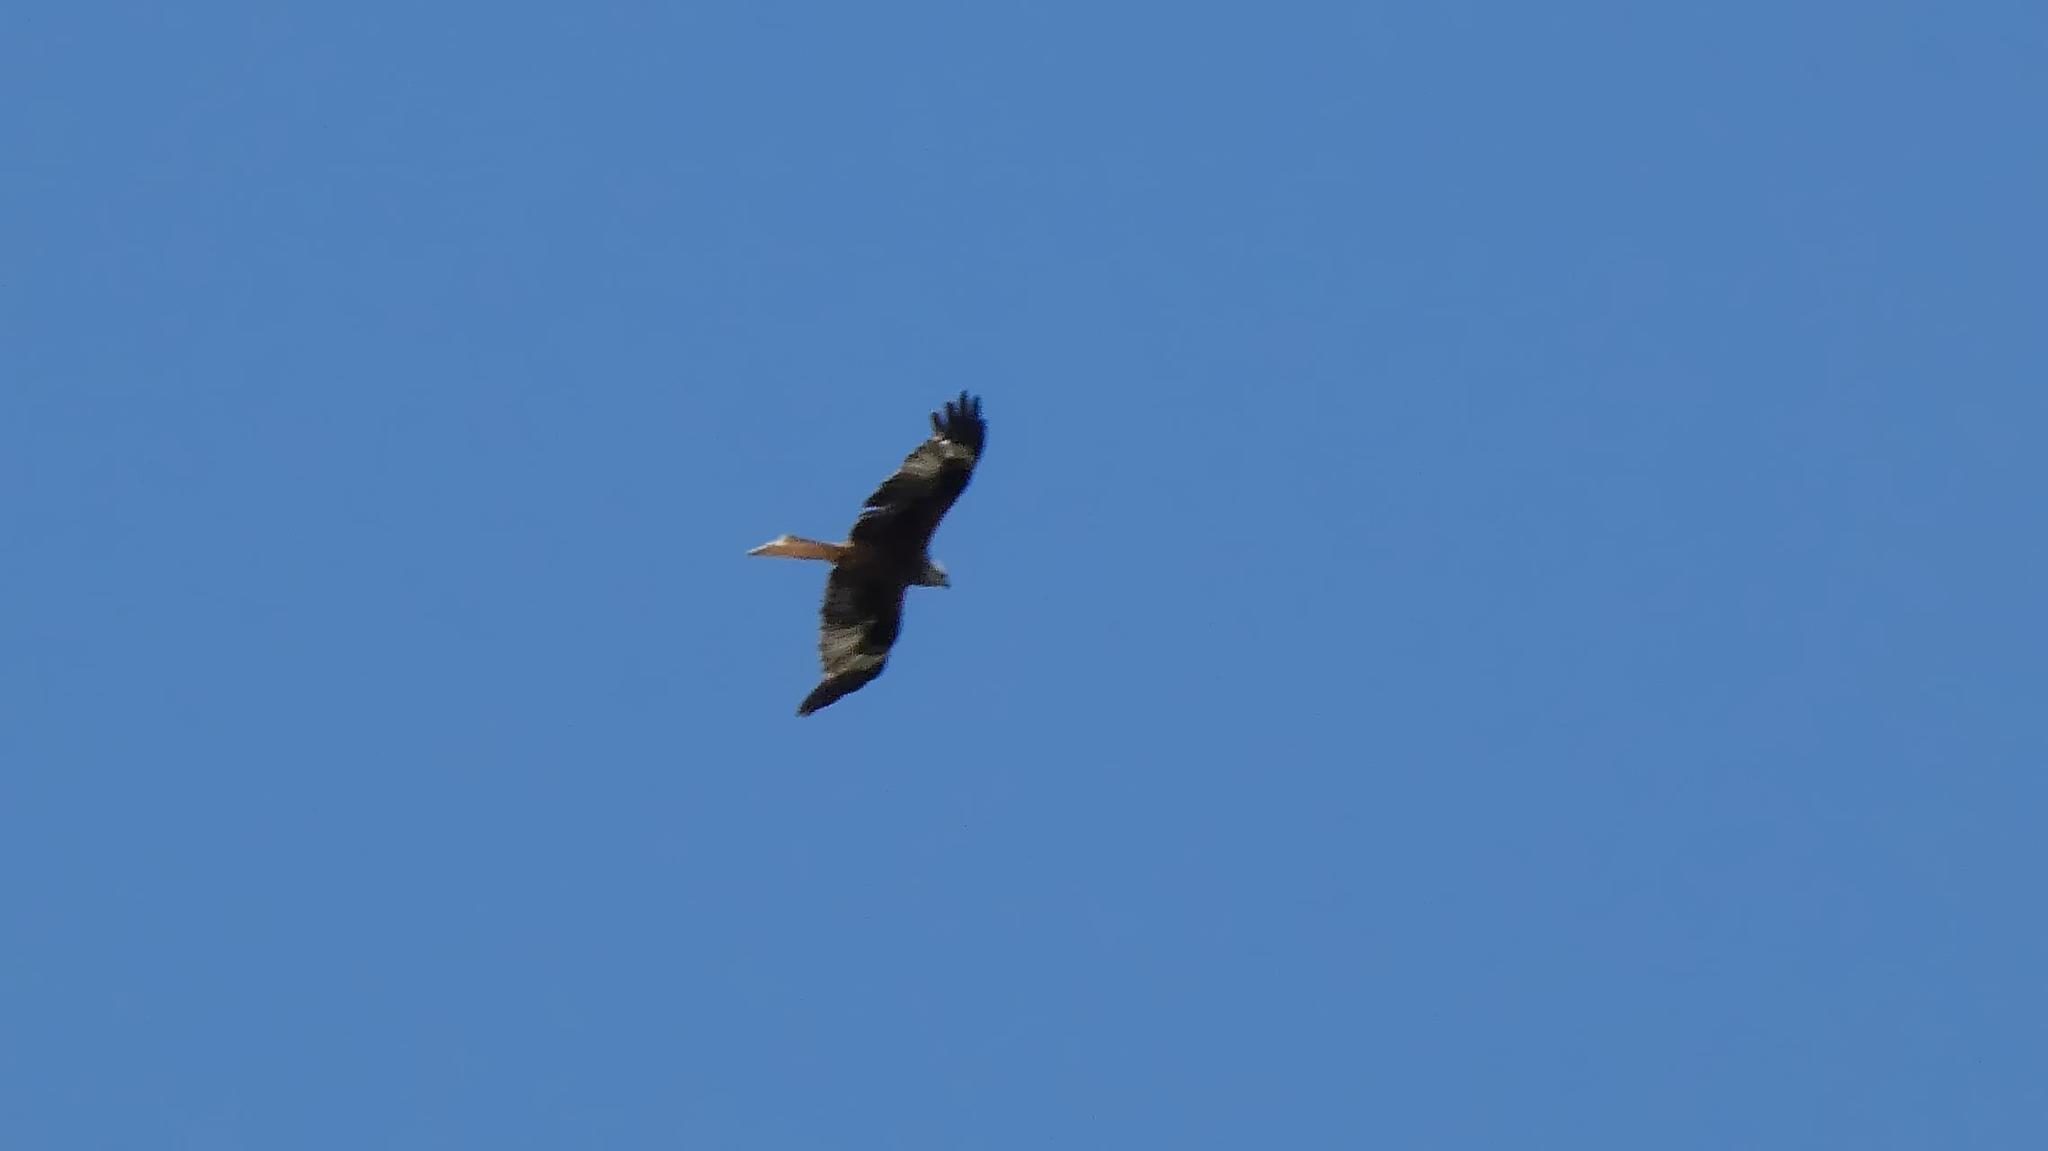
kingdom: Animalia
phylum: Chordata
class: Aves
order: Accipitriformes
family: Accipitridae
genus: Milvus
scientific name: Milvus milvus
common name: Red kite
